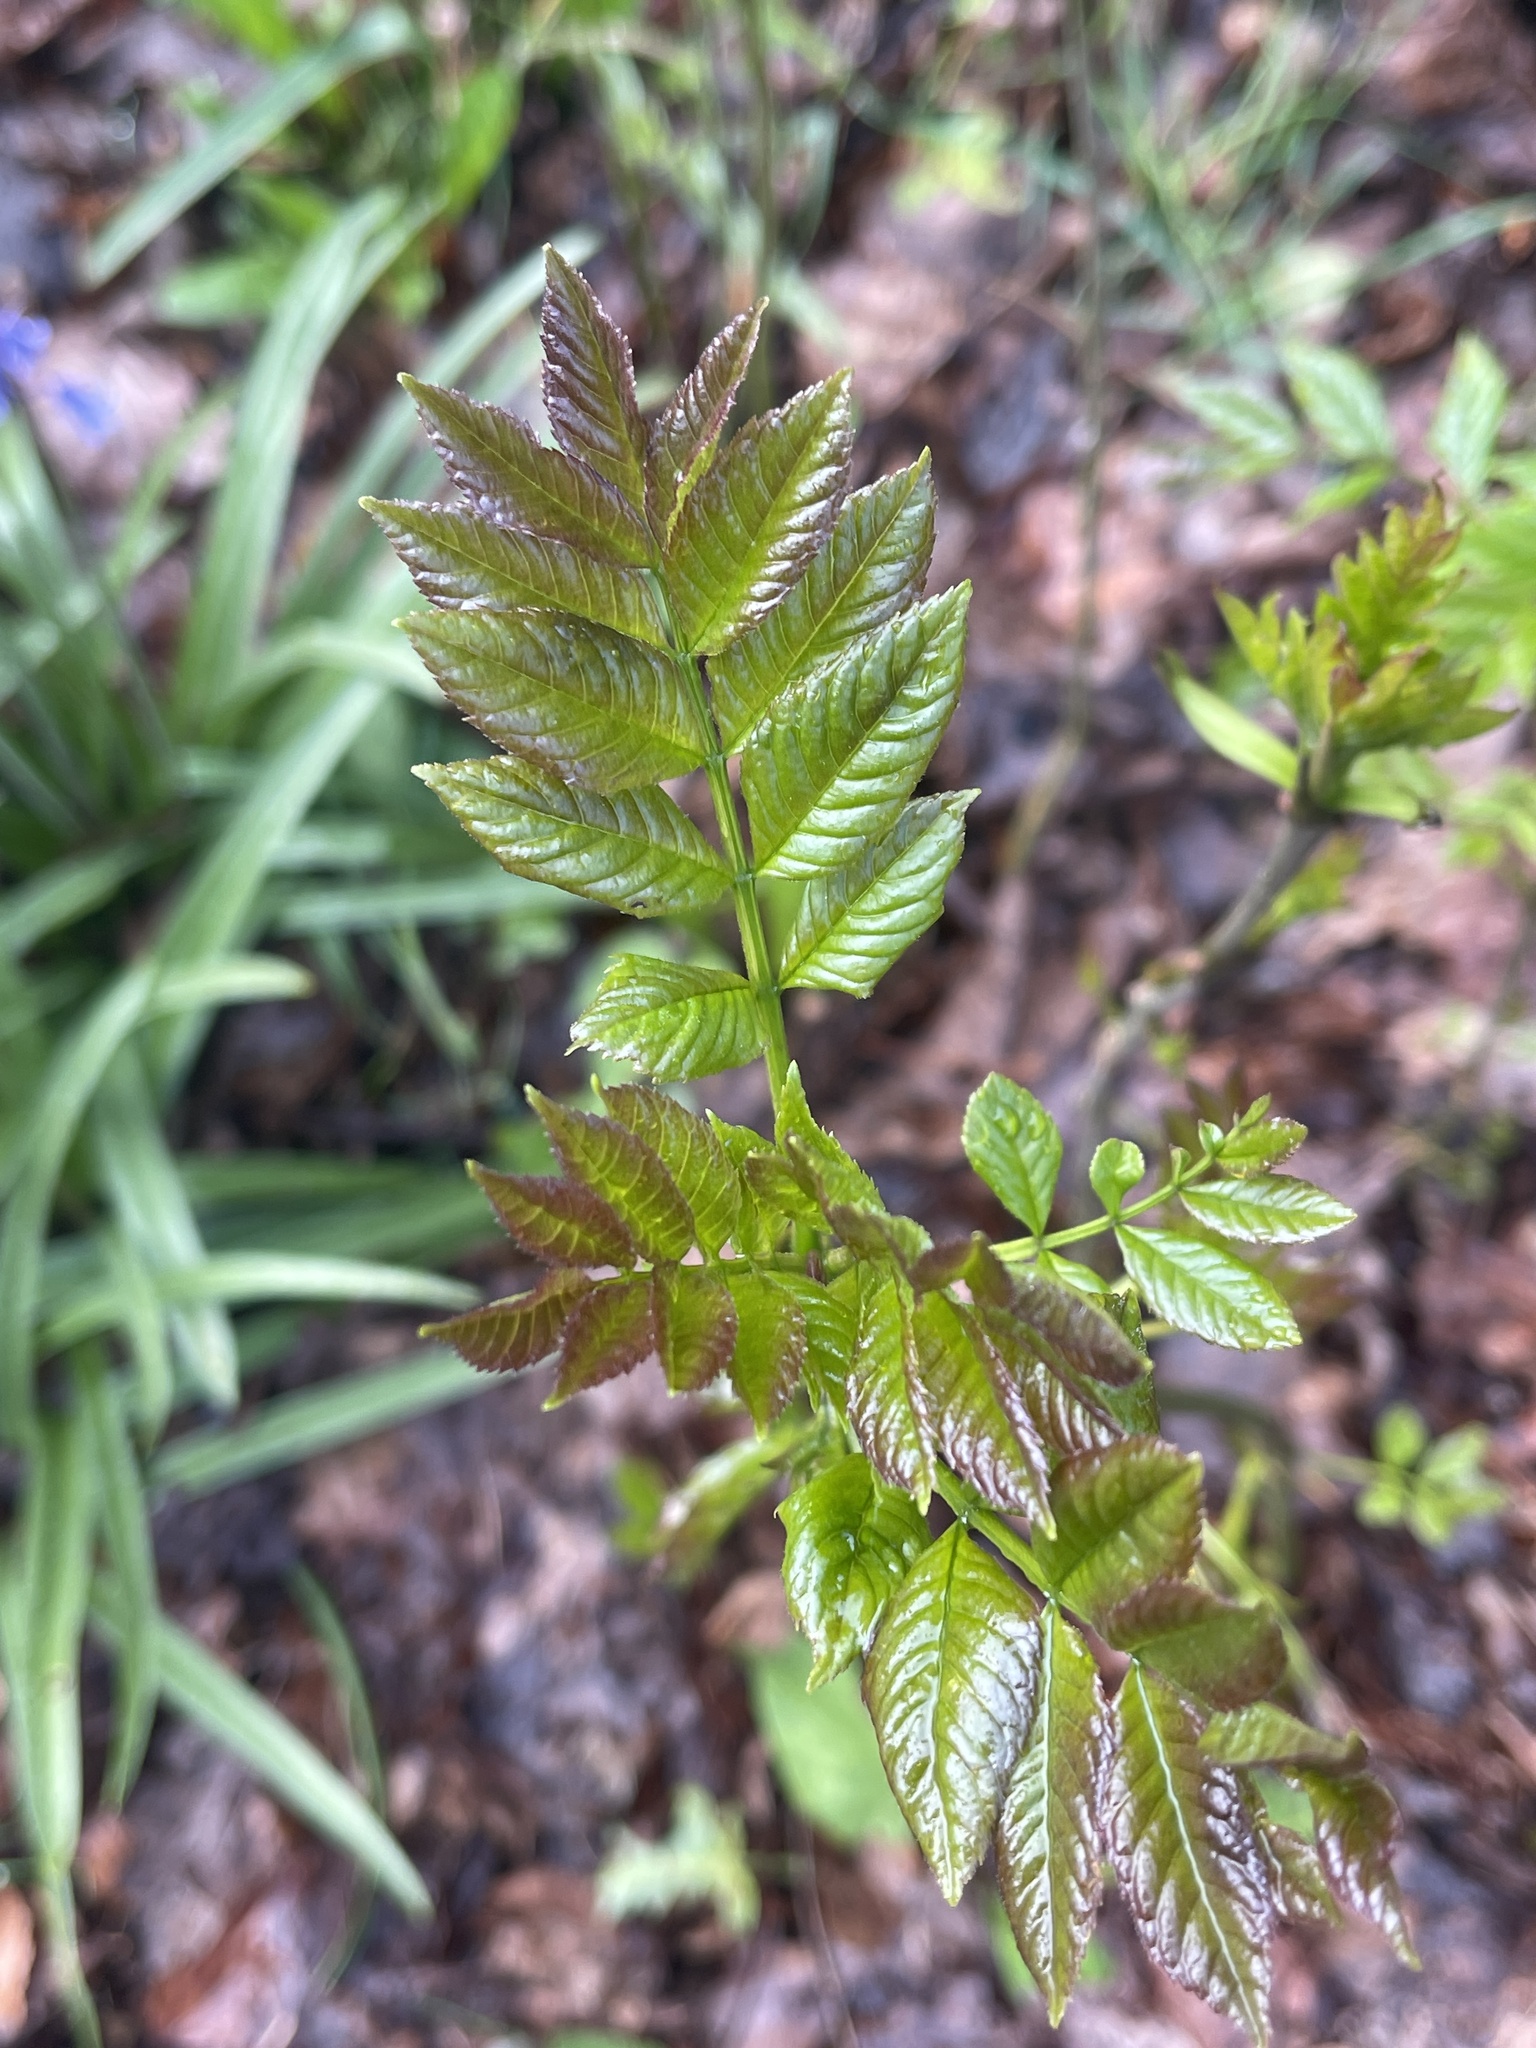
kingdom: Plantae
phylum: Tracheophyta
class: Magnoliopsida
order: Lamiales
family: Oleaceae
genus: Fraxinus
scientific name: Fraxinus excelsior
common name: European ash
